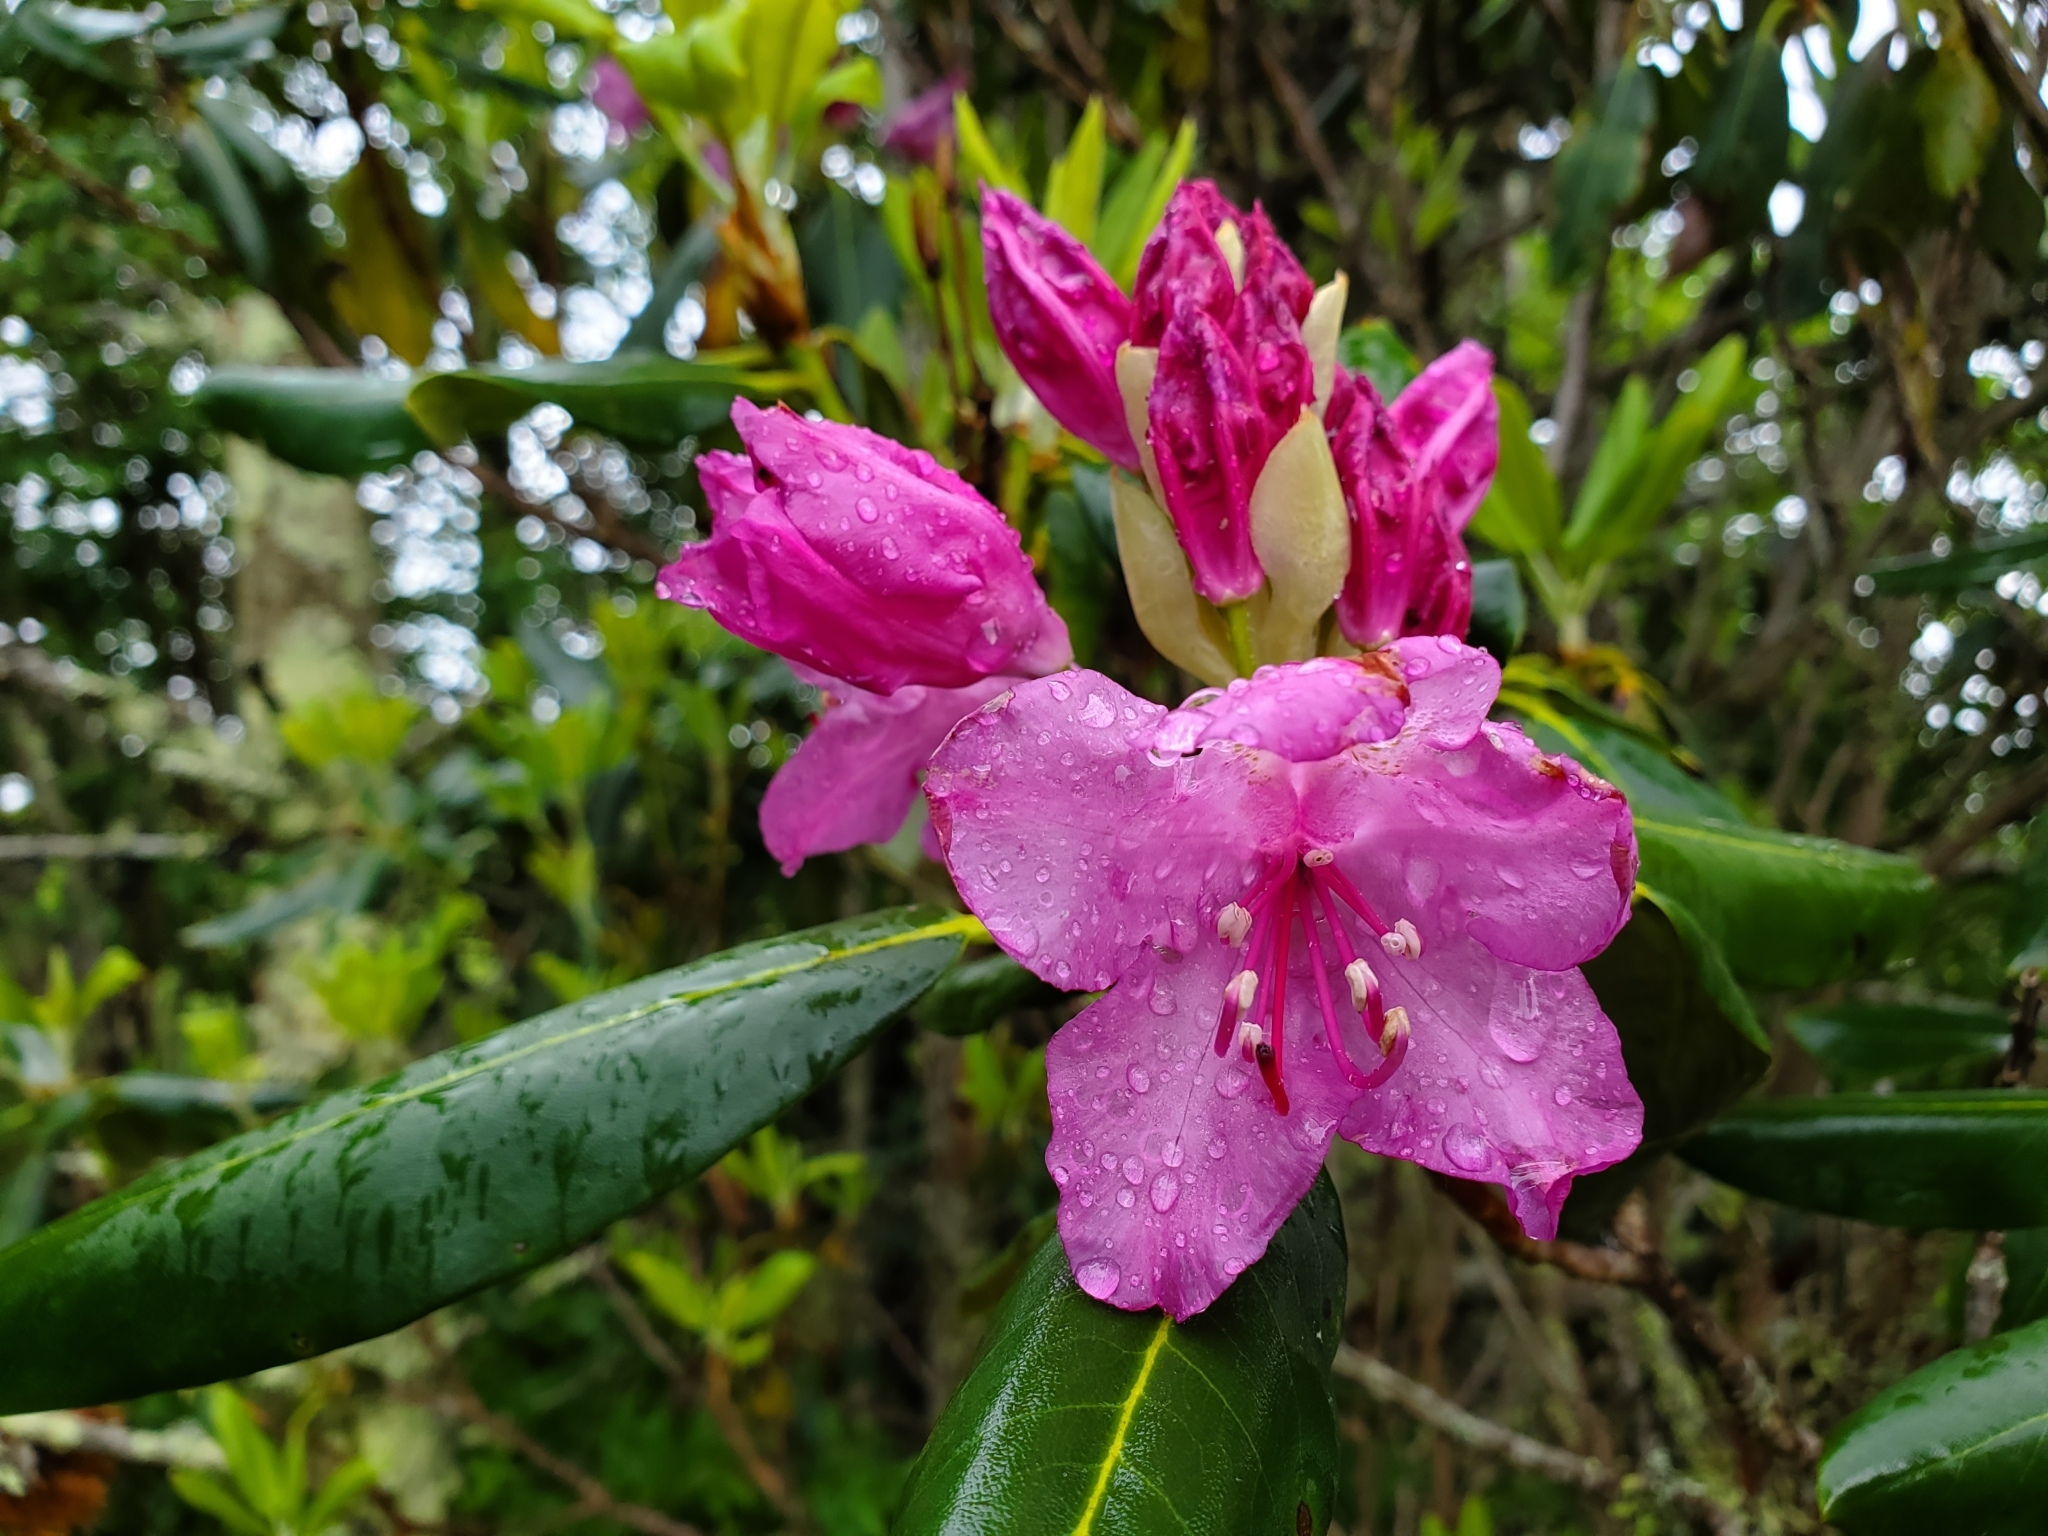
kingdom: Plantae
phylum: Tracheophyta
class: Magnoliopsida
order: Ericales
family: Ericaceae
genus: Rhododendron
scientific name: Rhododendron catawbiense
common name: Catawba rhododendron
